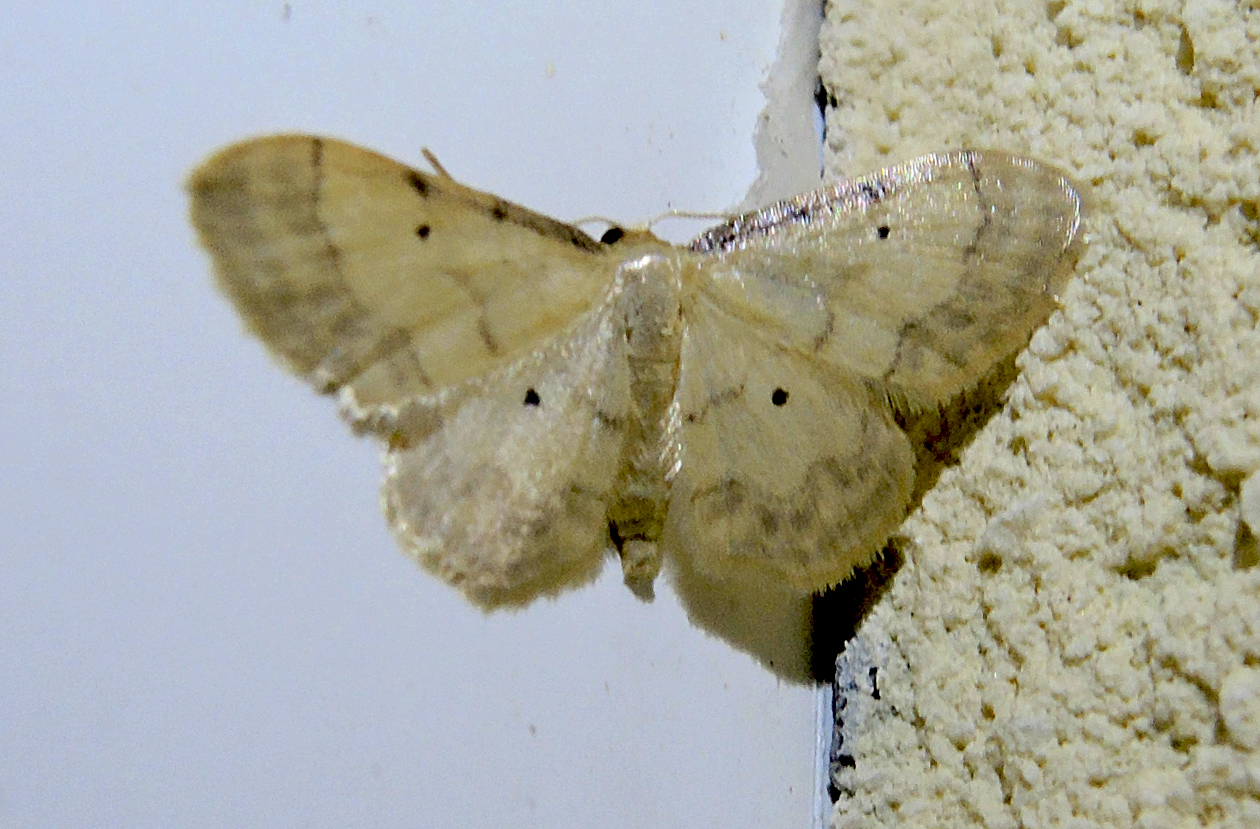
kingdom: Animalia
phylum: Arthropoda
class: Insecta
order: Lepidoptera
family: Geometridae
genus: Idaea
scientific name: Idaea politaria
